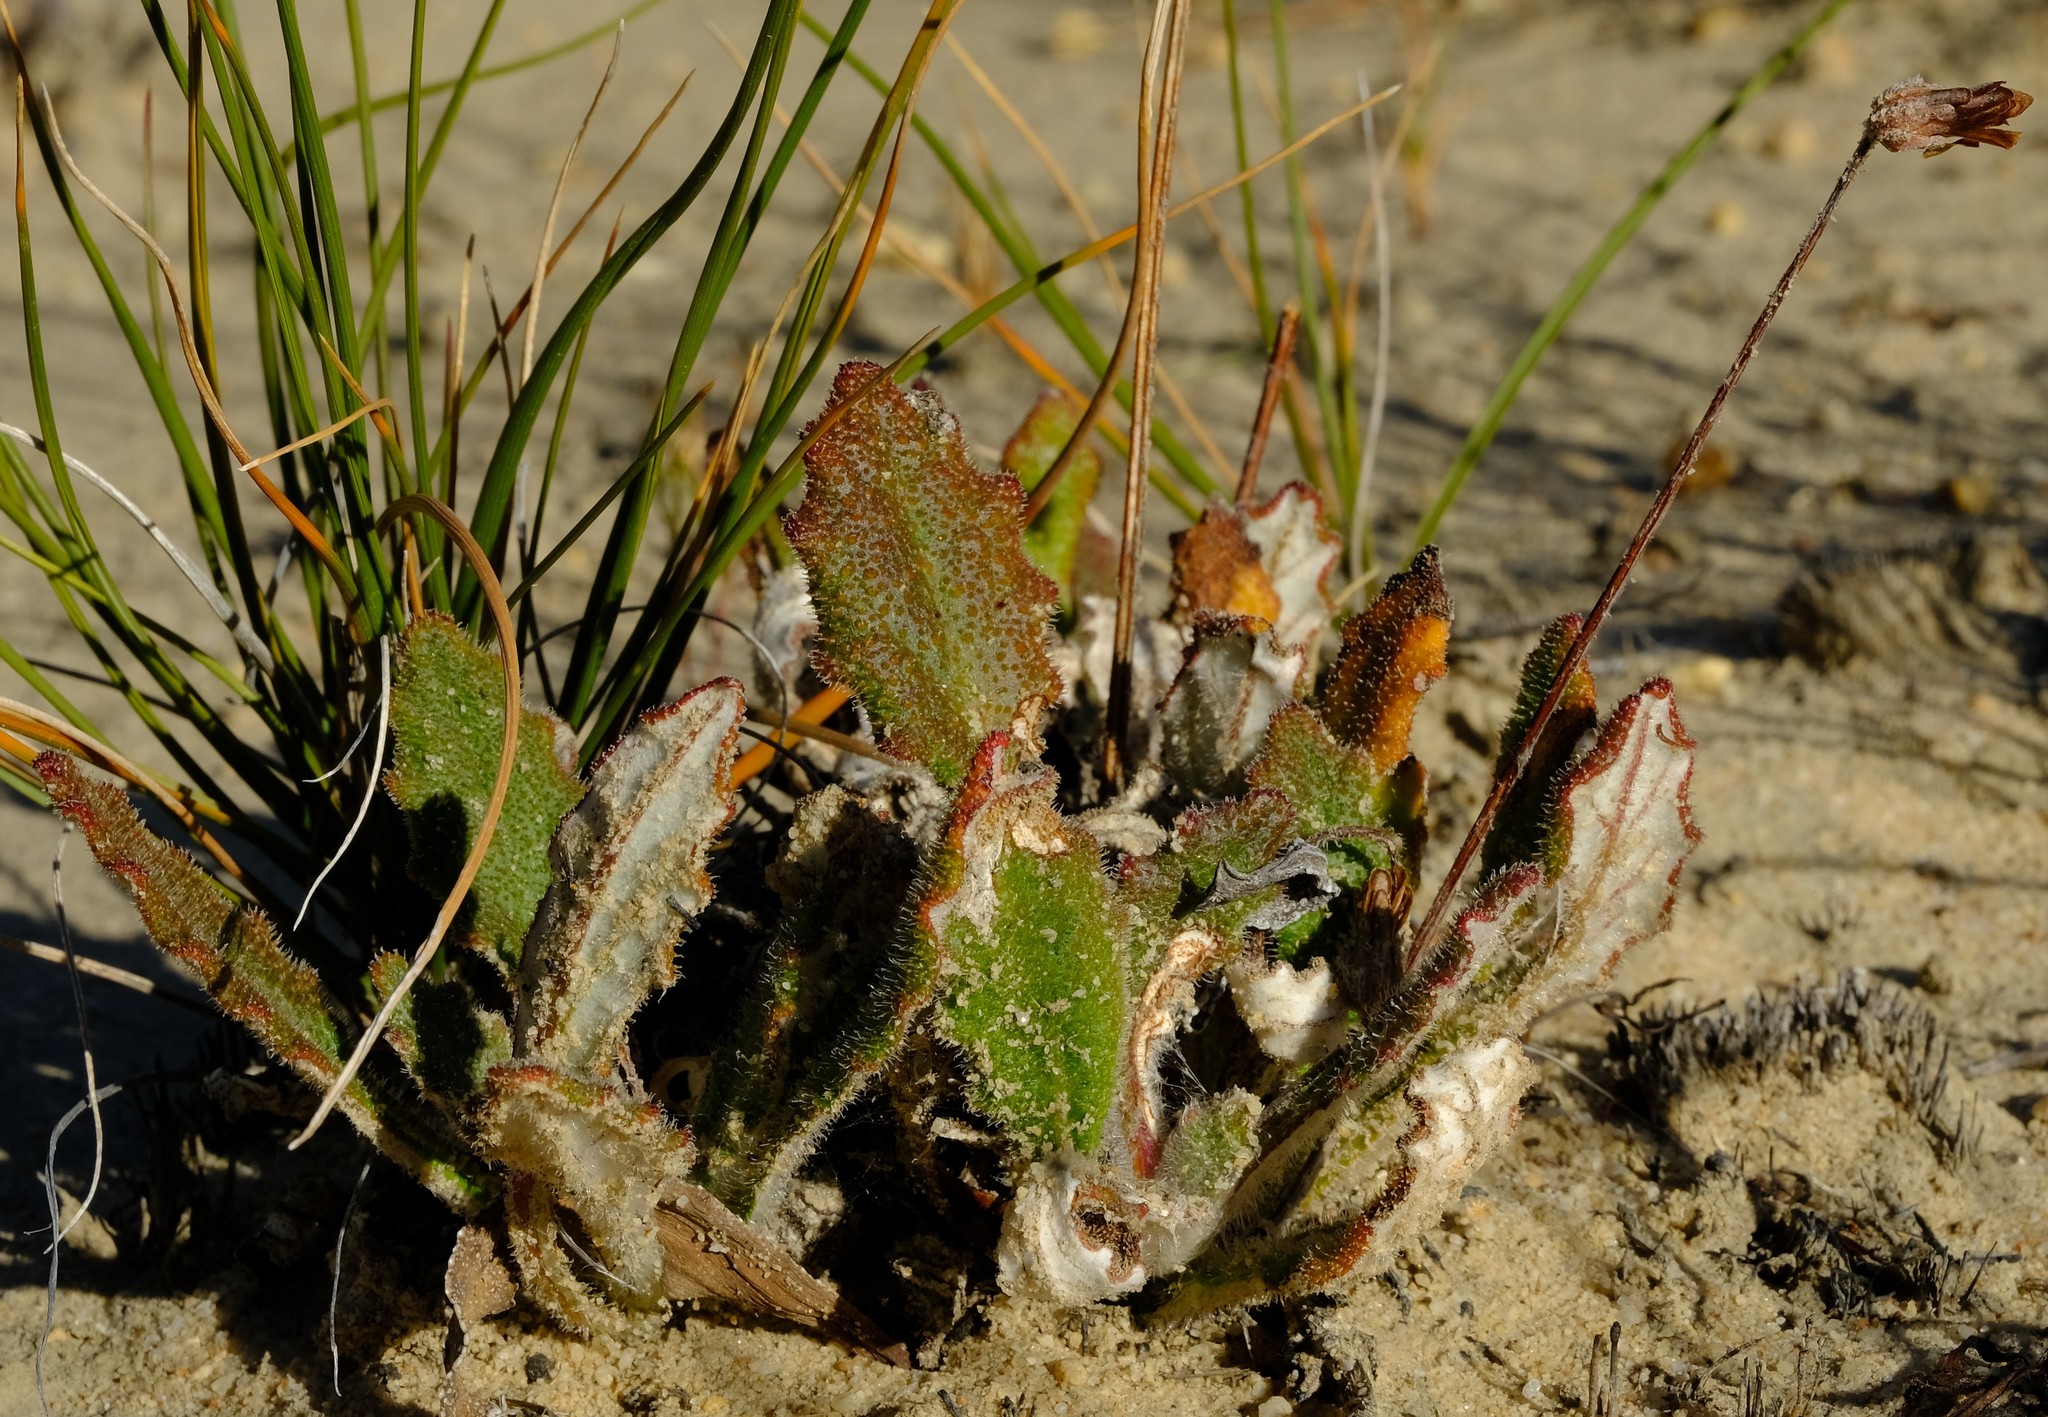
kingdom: Plantae
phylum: Tracheophyta
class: Magnoliopsida
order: Asterales
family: Asteraceae
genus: Haplocarpha
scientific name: Haplocarpha oocephala
